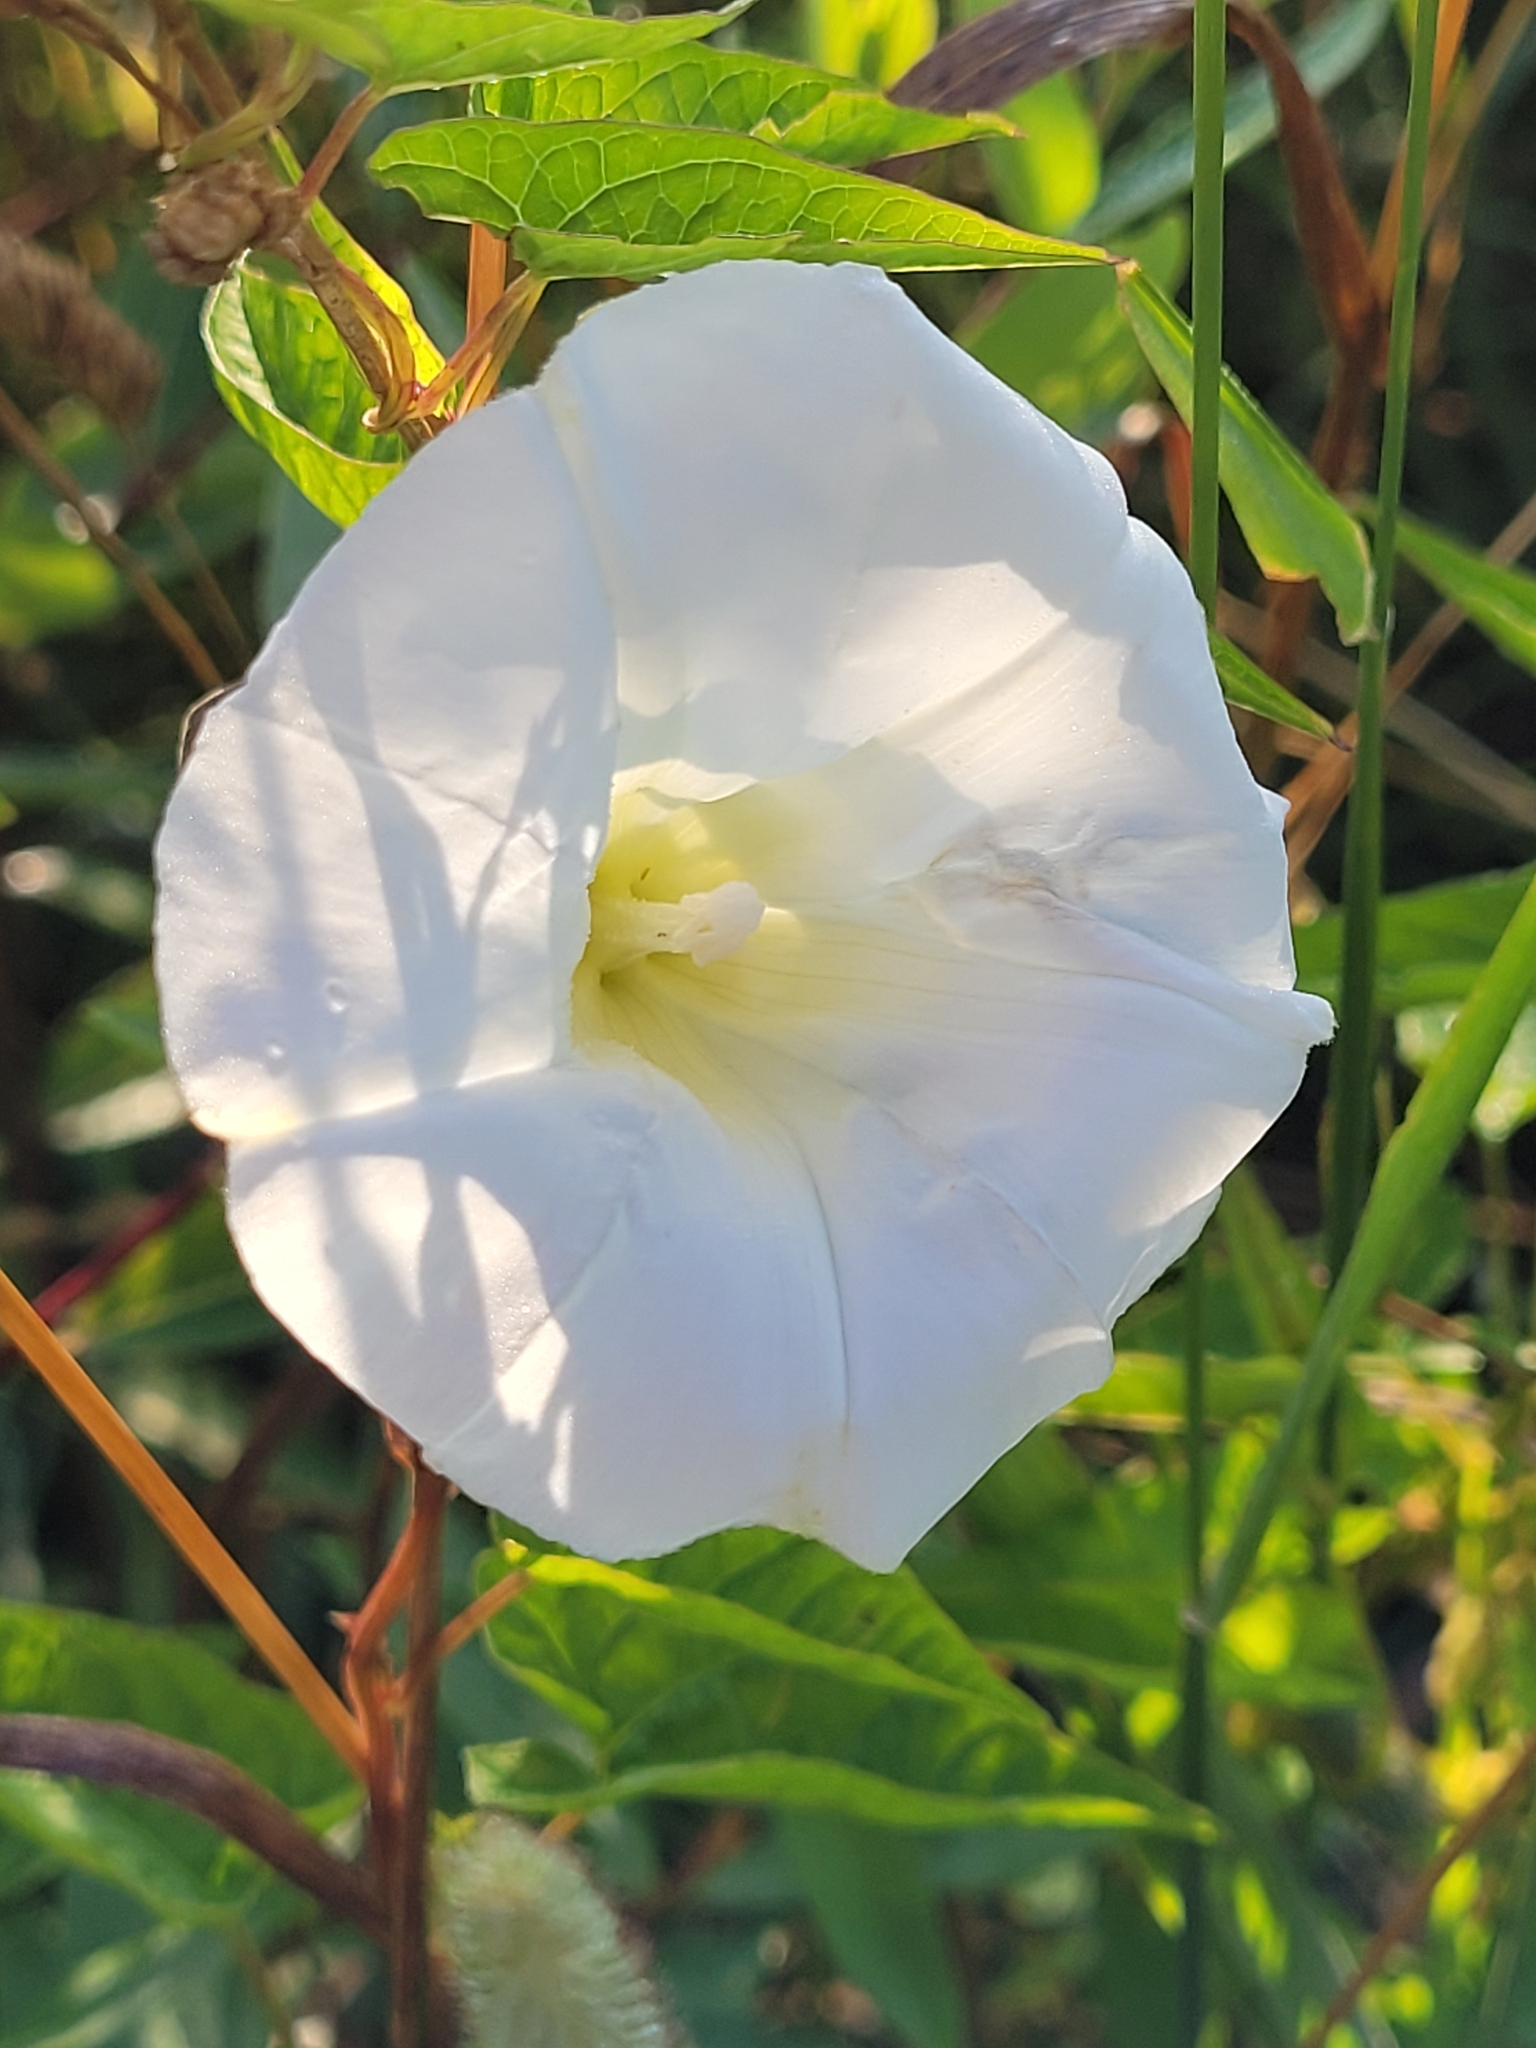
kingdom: Plantae
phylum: Tracheophyta
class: Magnoliopsida
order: Solanales
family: Convolvulaceae
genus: Calystegia
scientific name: Calystegia sepium
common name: Hedge bindweed
